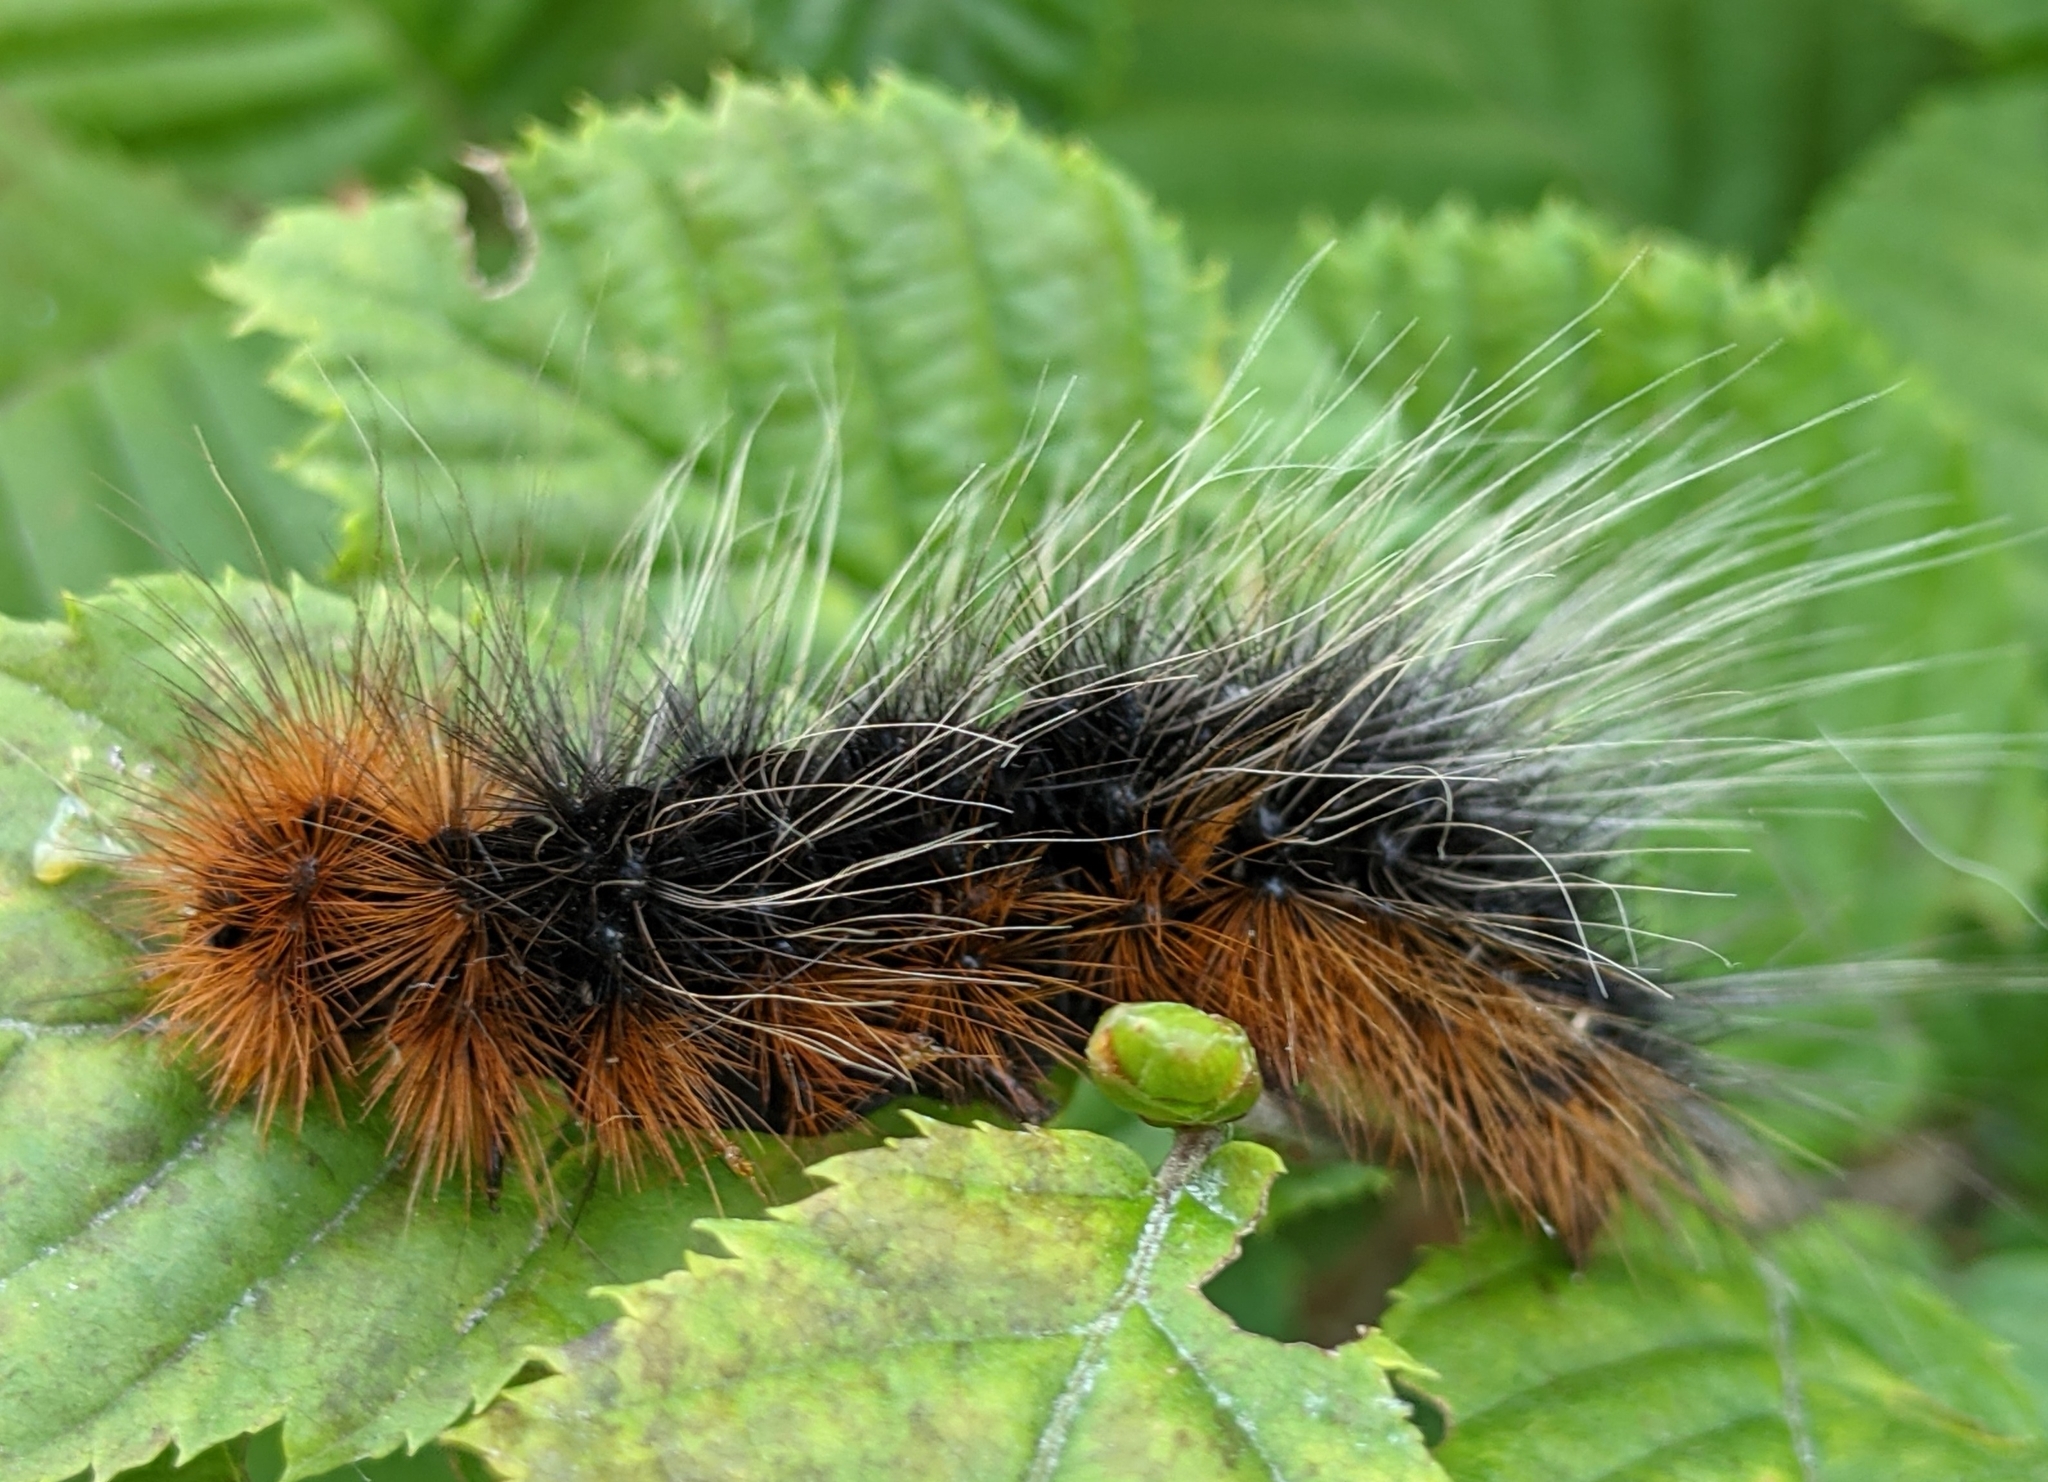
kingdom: Animalia
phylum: Arthropoda
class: Insecta
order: Lepidoptera
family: Erebidae
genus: Arctia
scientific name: Arctia caja
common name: Garden tiger
